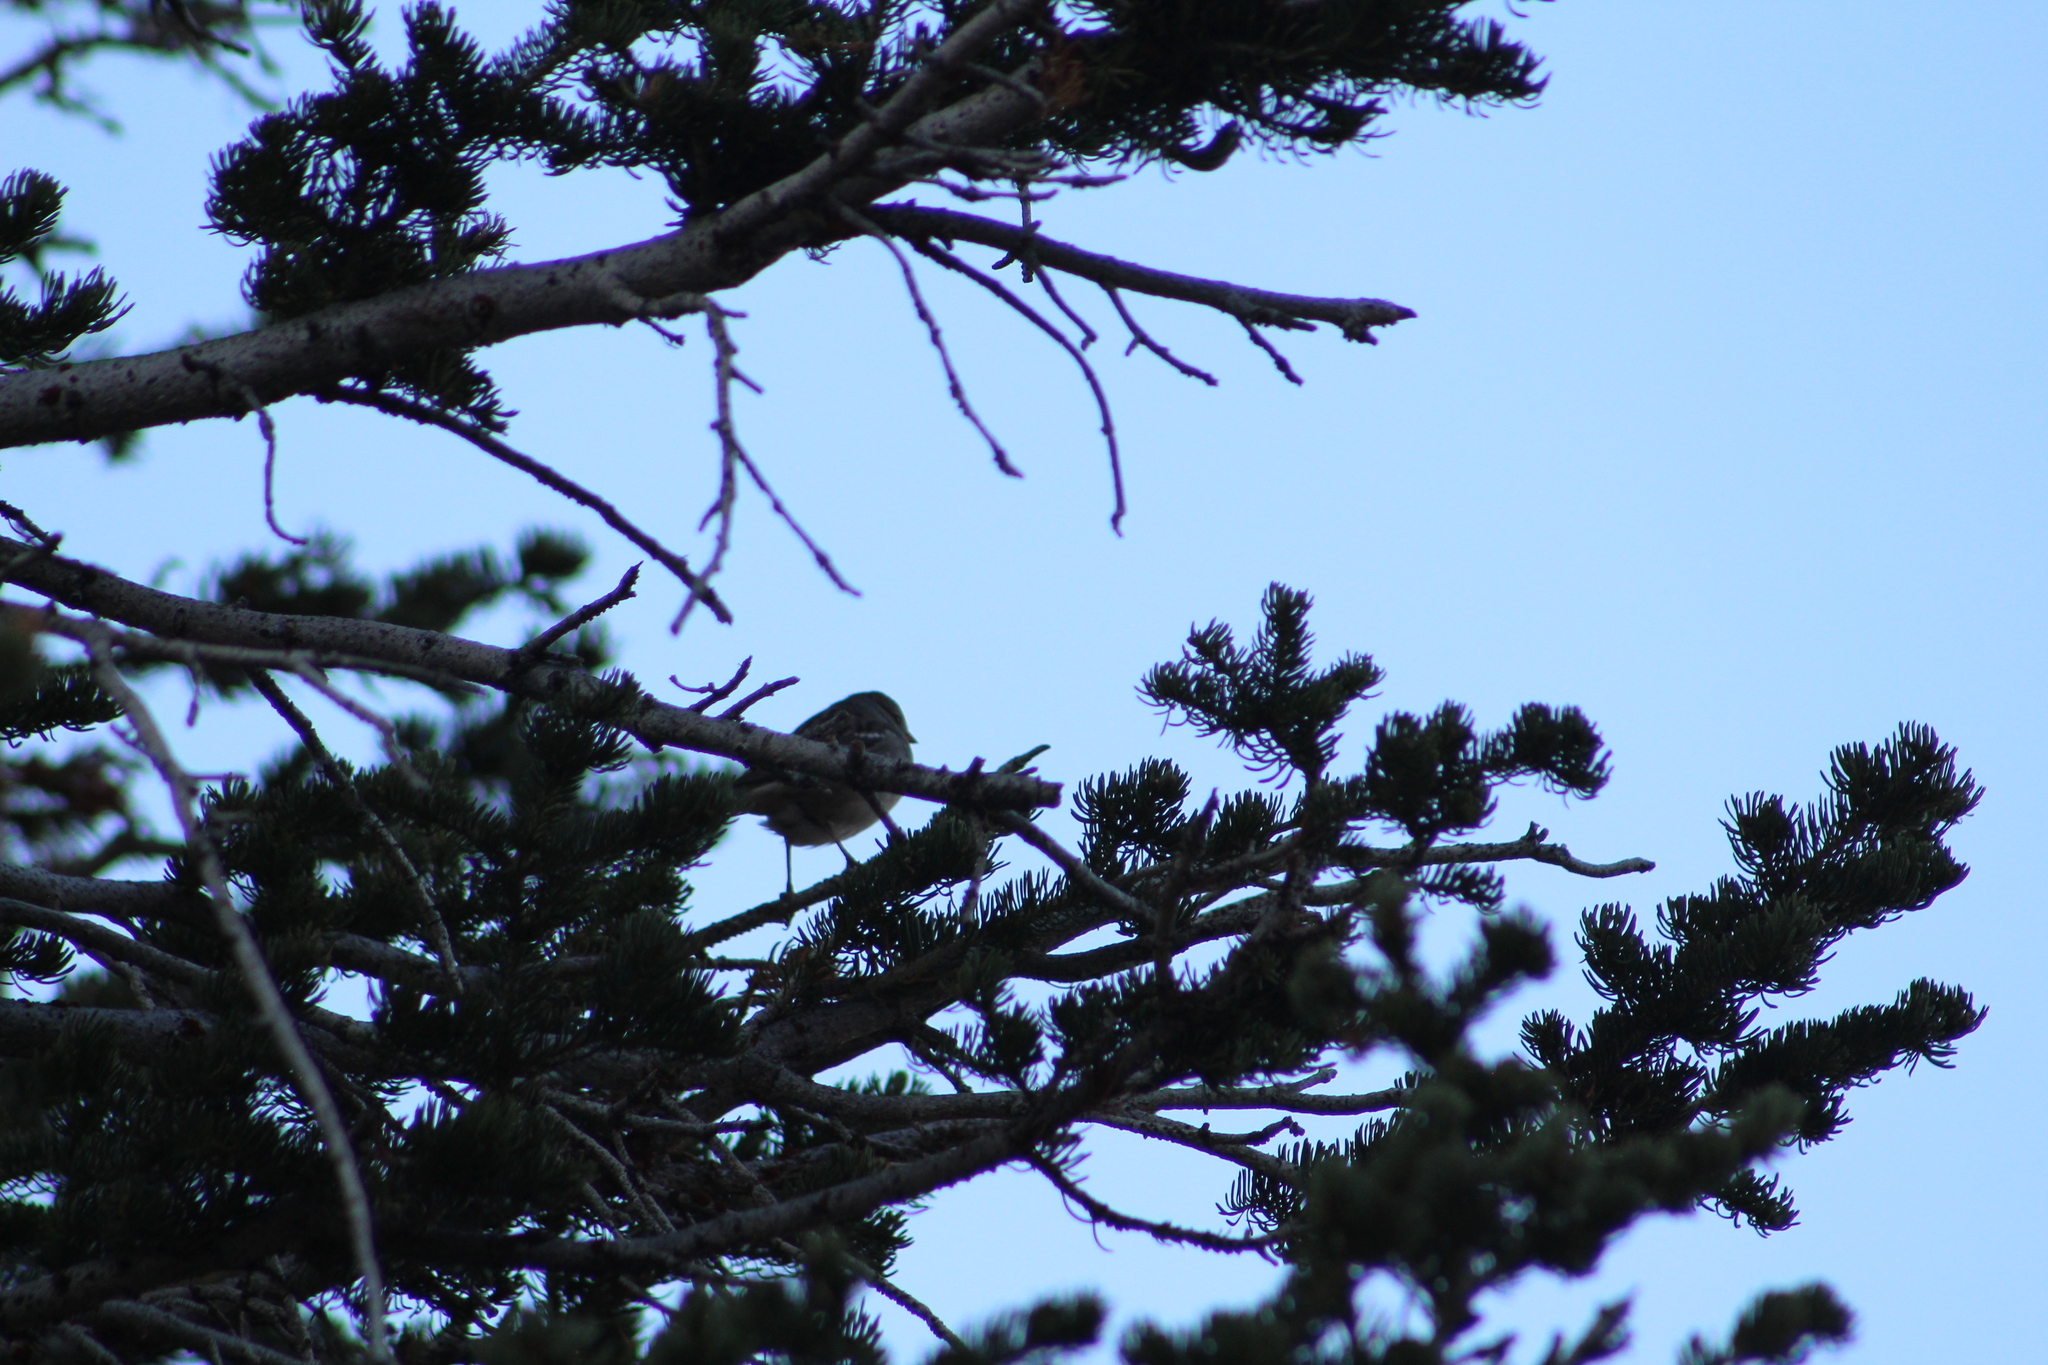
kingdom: Animalia
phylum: Chordata
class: Aves
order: Passeriformes
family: Passerellidae
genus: Zonotrichia
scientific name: Zonotrichia leucophrys
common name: White-crowned sparrow
